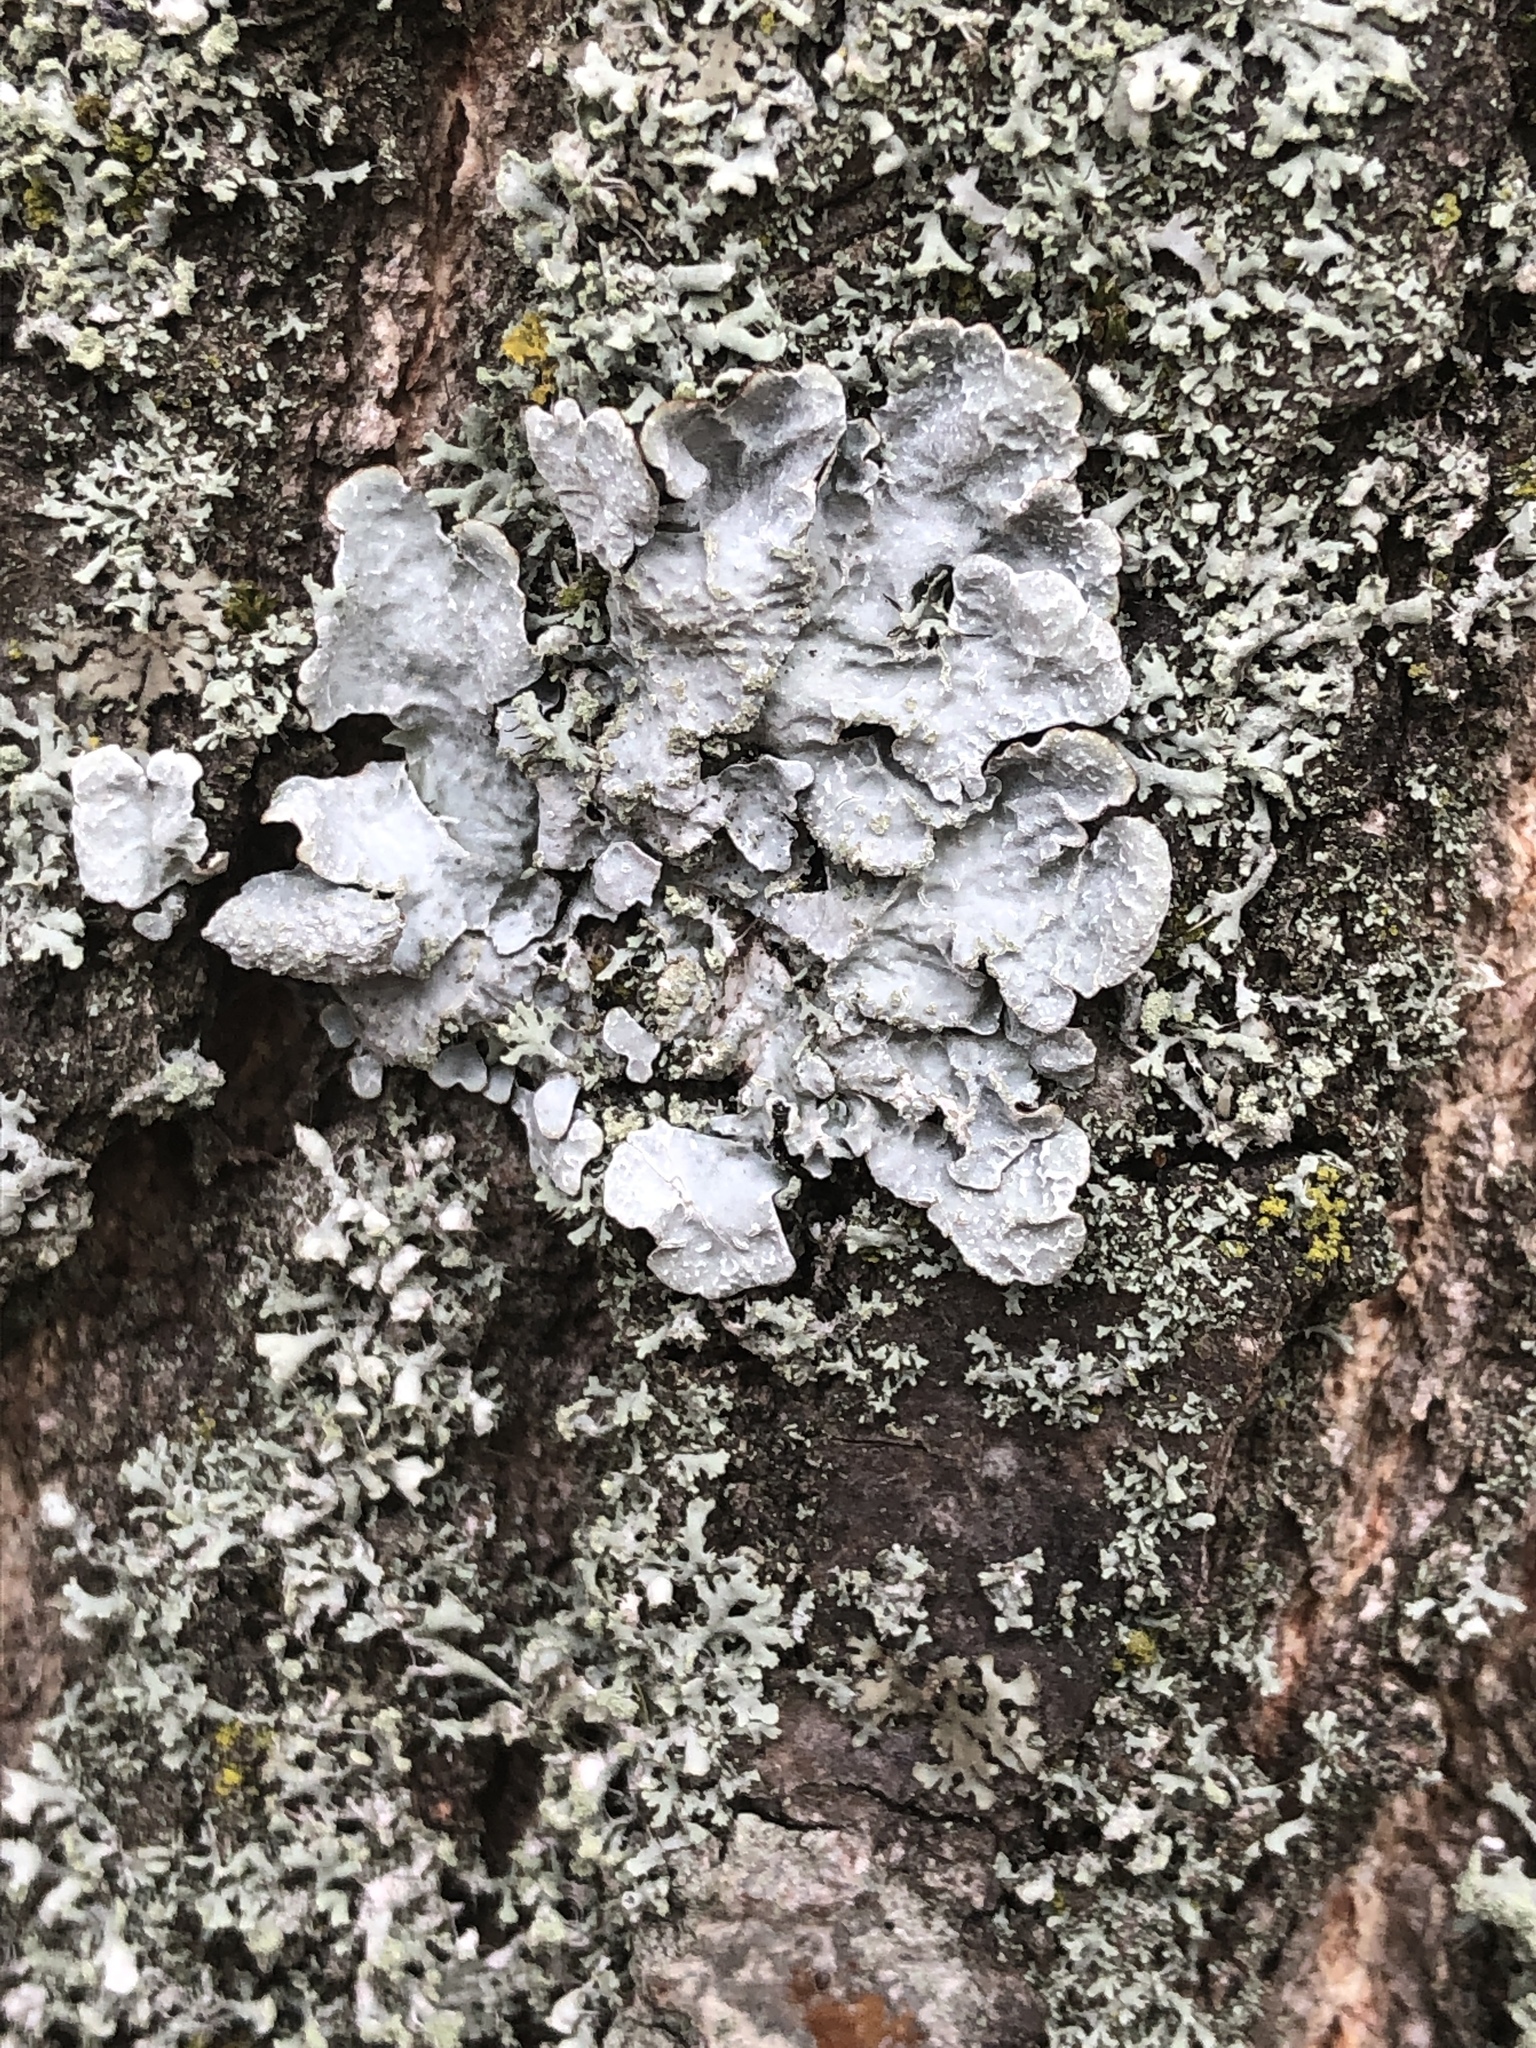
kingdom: Fungi
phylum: Ascomycota
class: Lecanoromycetes
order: Lecanorales
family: Parmeliaceae
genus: Parmelia
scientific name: Parmelia sulcata
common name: Netted shield lichen
